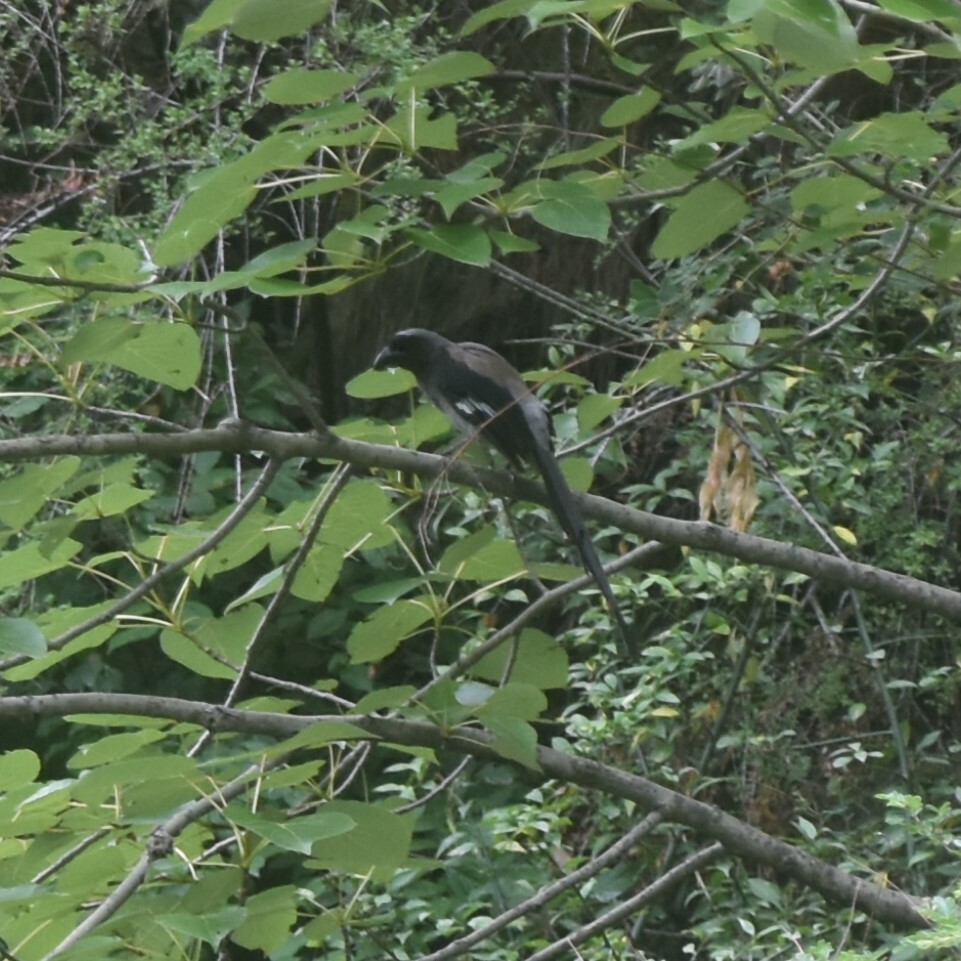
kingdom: Animalia
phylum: Chordata
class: Aves
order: Passeriformes
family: Corvidae
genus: Dendrocitta
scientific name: Dendrocitta formosae
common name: Grey treepie
